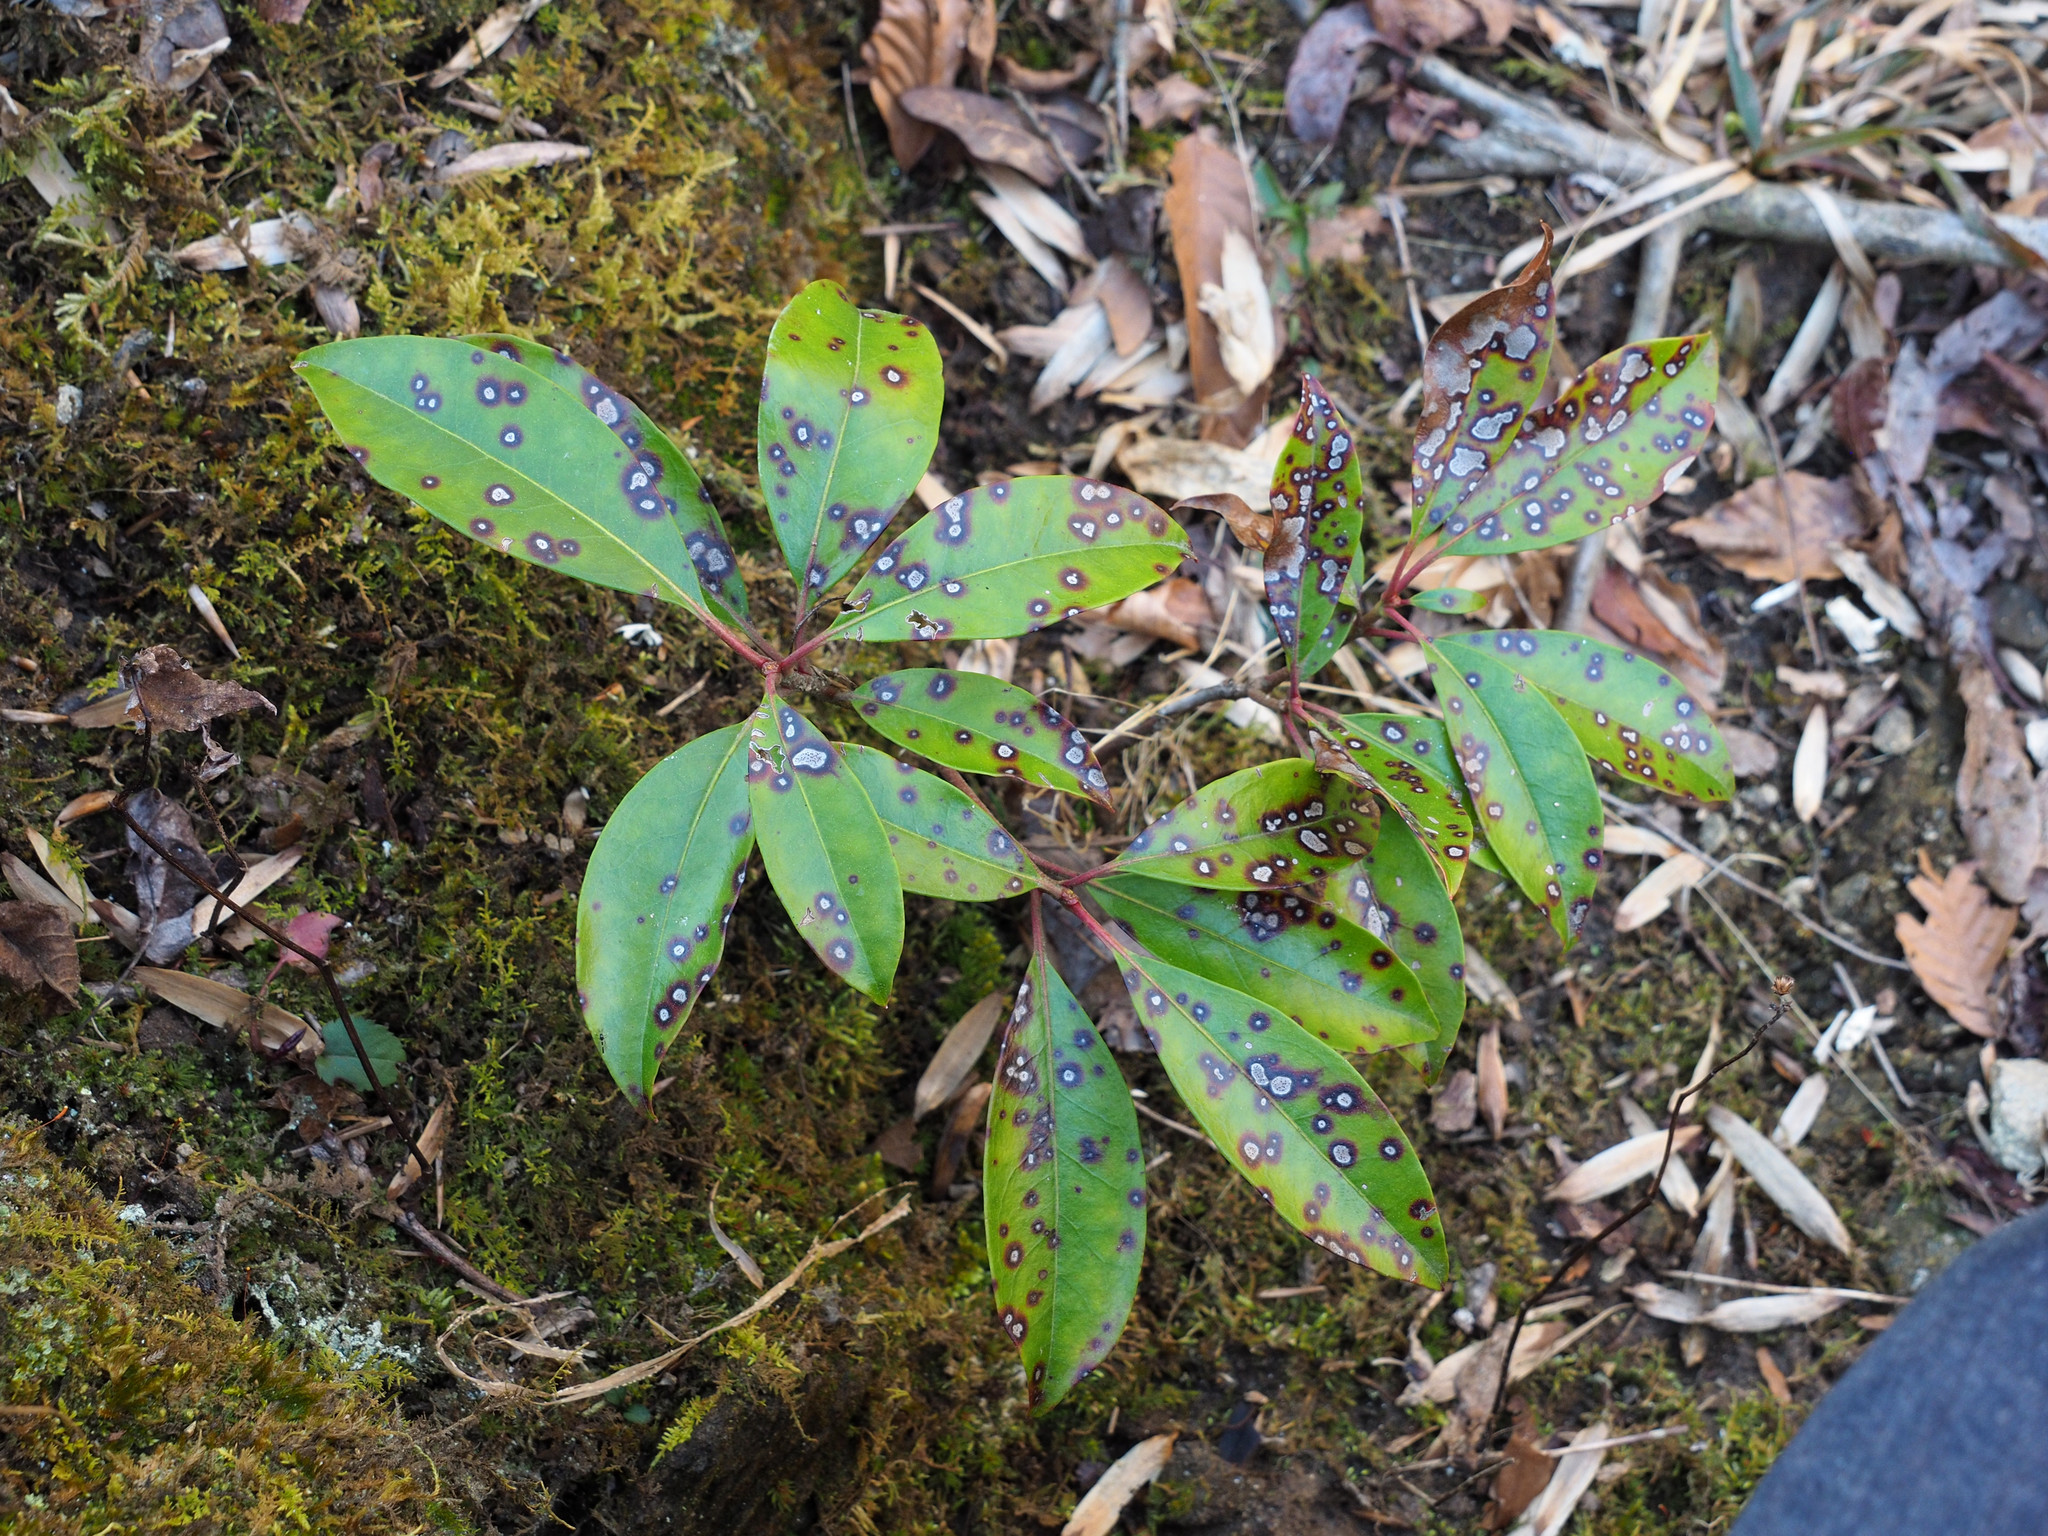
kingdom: Fungi
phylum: Ascomycota
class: Dothideomycetes
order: Mycosphaerellales
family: Mycosphaerellaceae
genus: Mycosphaerella
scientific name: Mycosphaerella colorata
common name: Mountain laurel leaf spot
